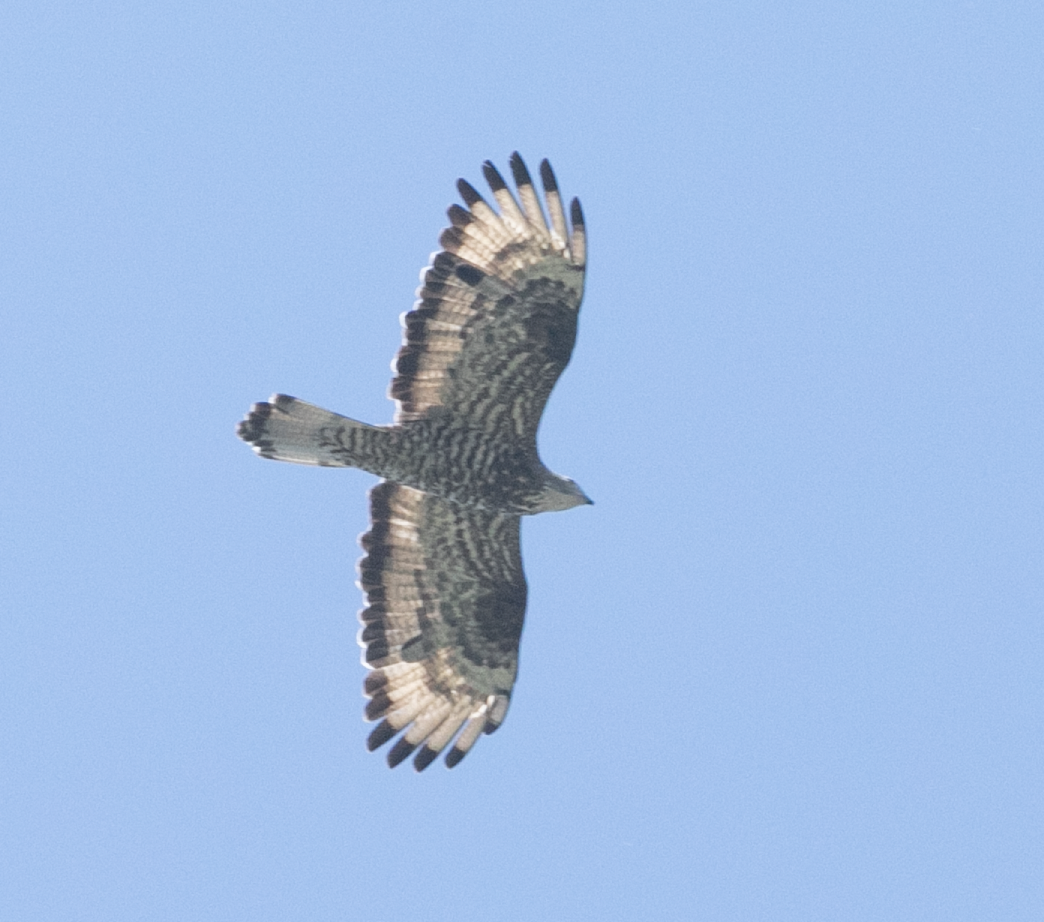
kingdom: Animalia
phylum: Chordata
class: Aves
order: Accipitriformes
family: Accipitridae
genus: Pernis
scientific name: Pernis apivorus
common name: European honey buzzard
